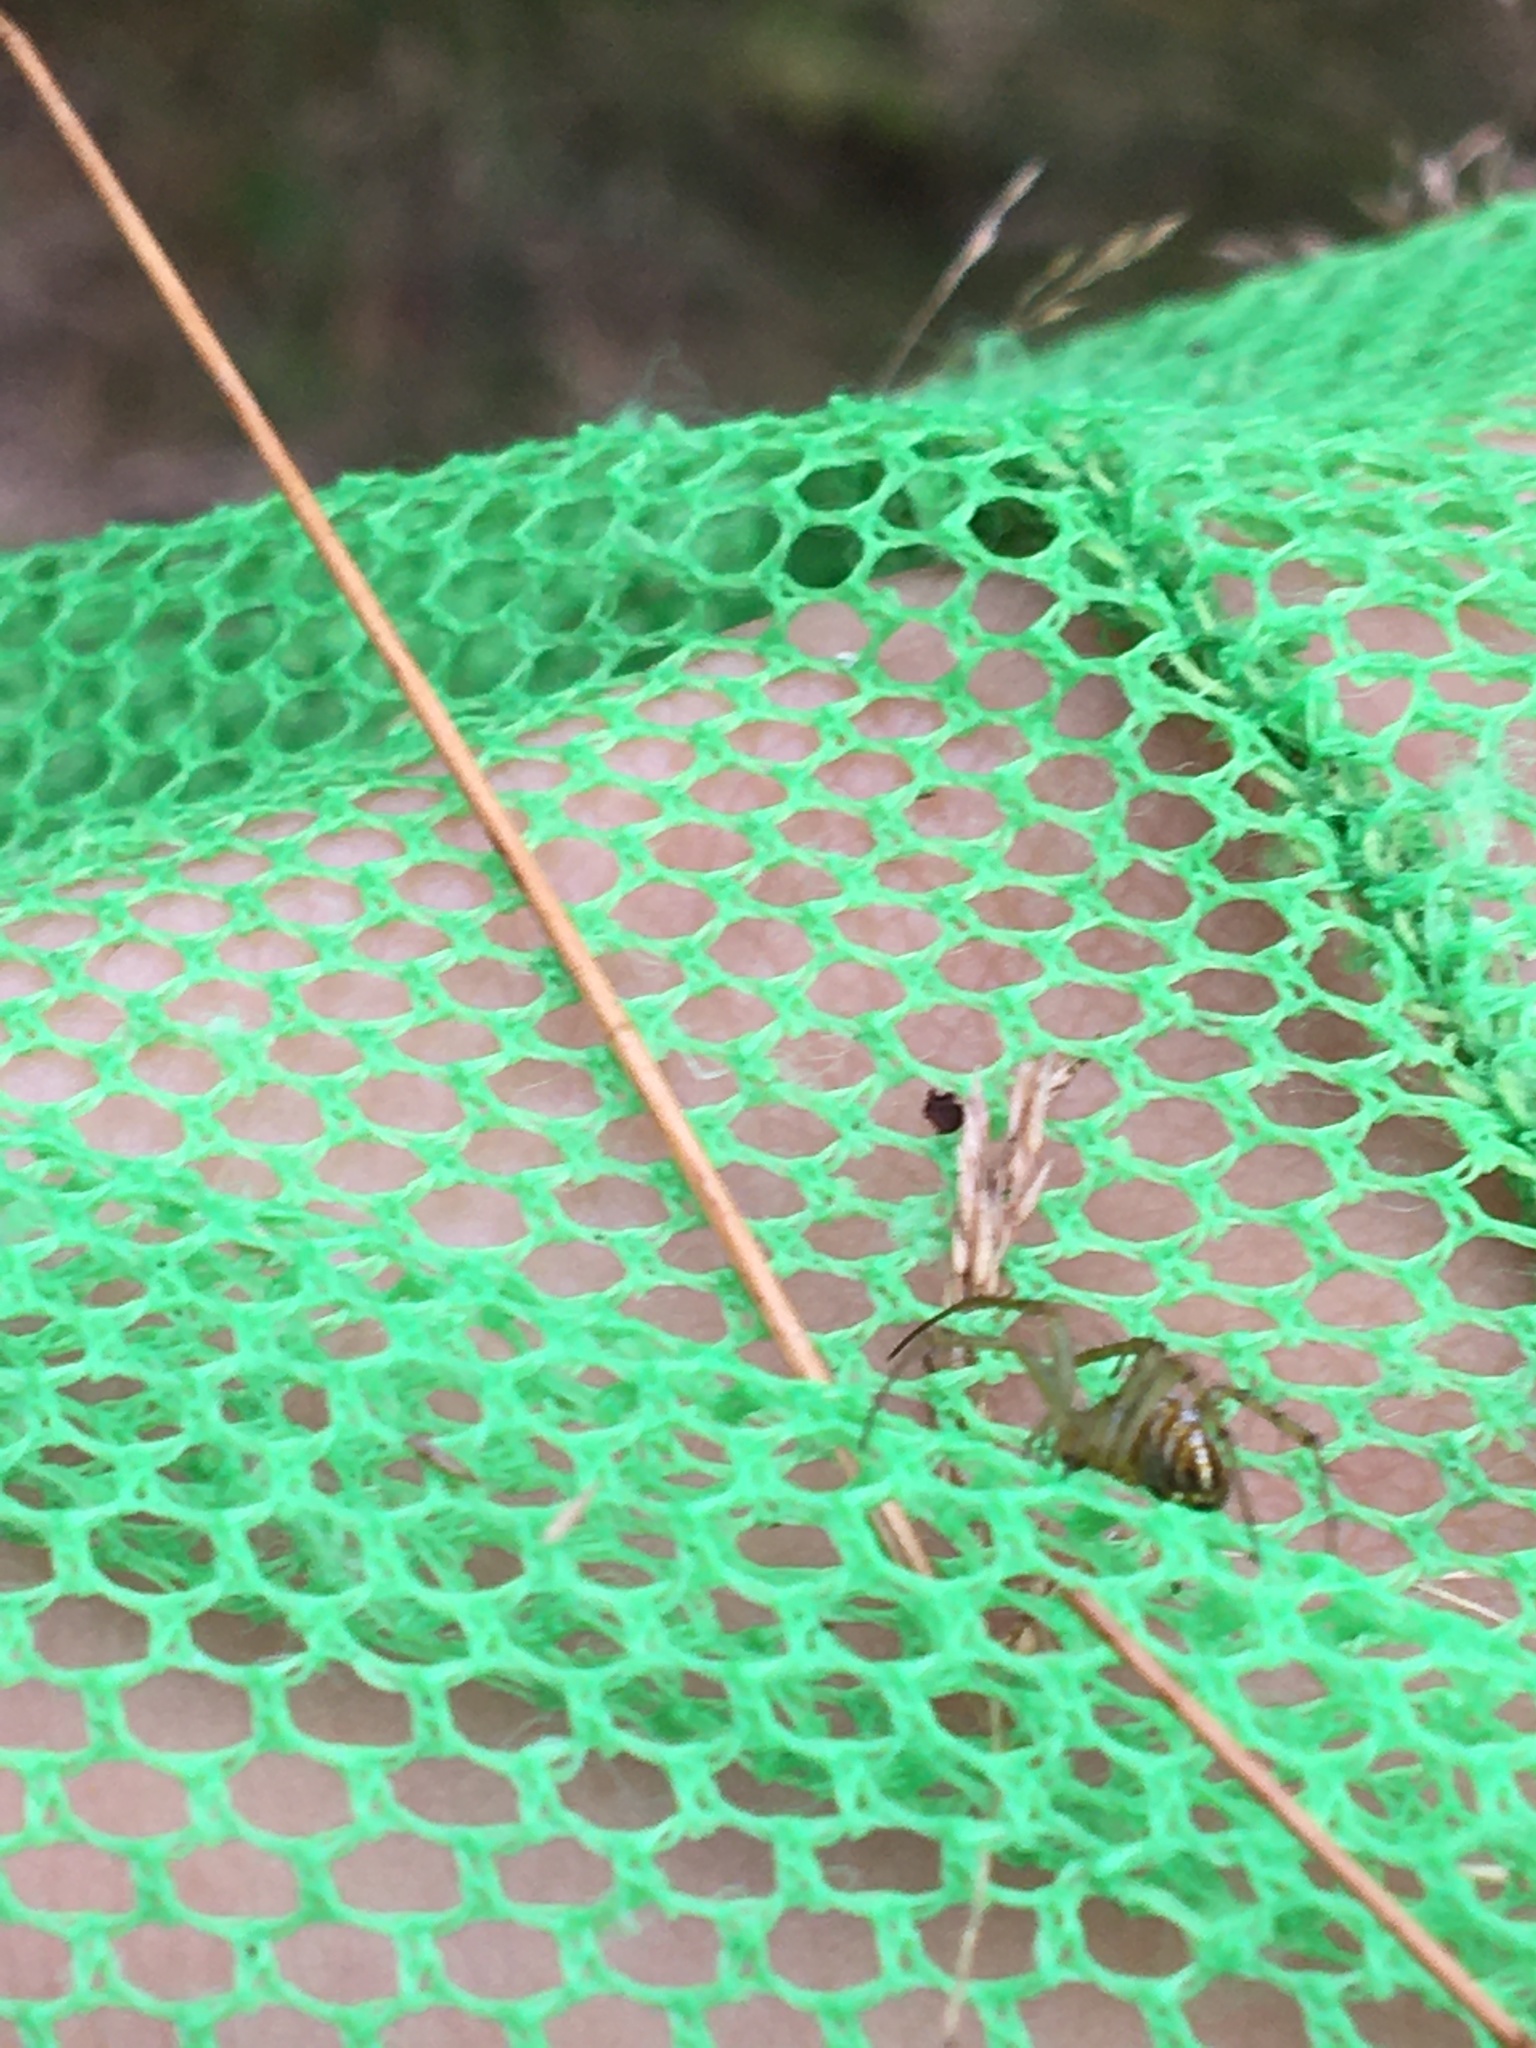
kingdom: Animalia
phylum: Arthropoda
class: Arachnida
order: Araneae
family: Araneidae
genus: Mangora
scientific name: Mangora gibberosa
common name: Lined orbweaver
